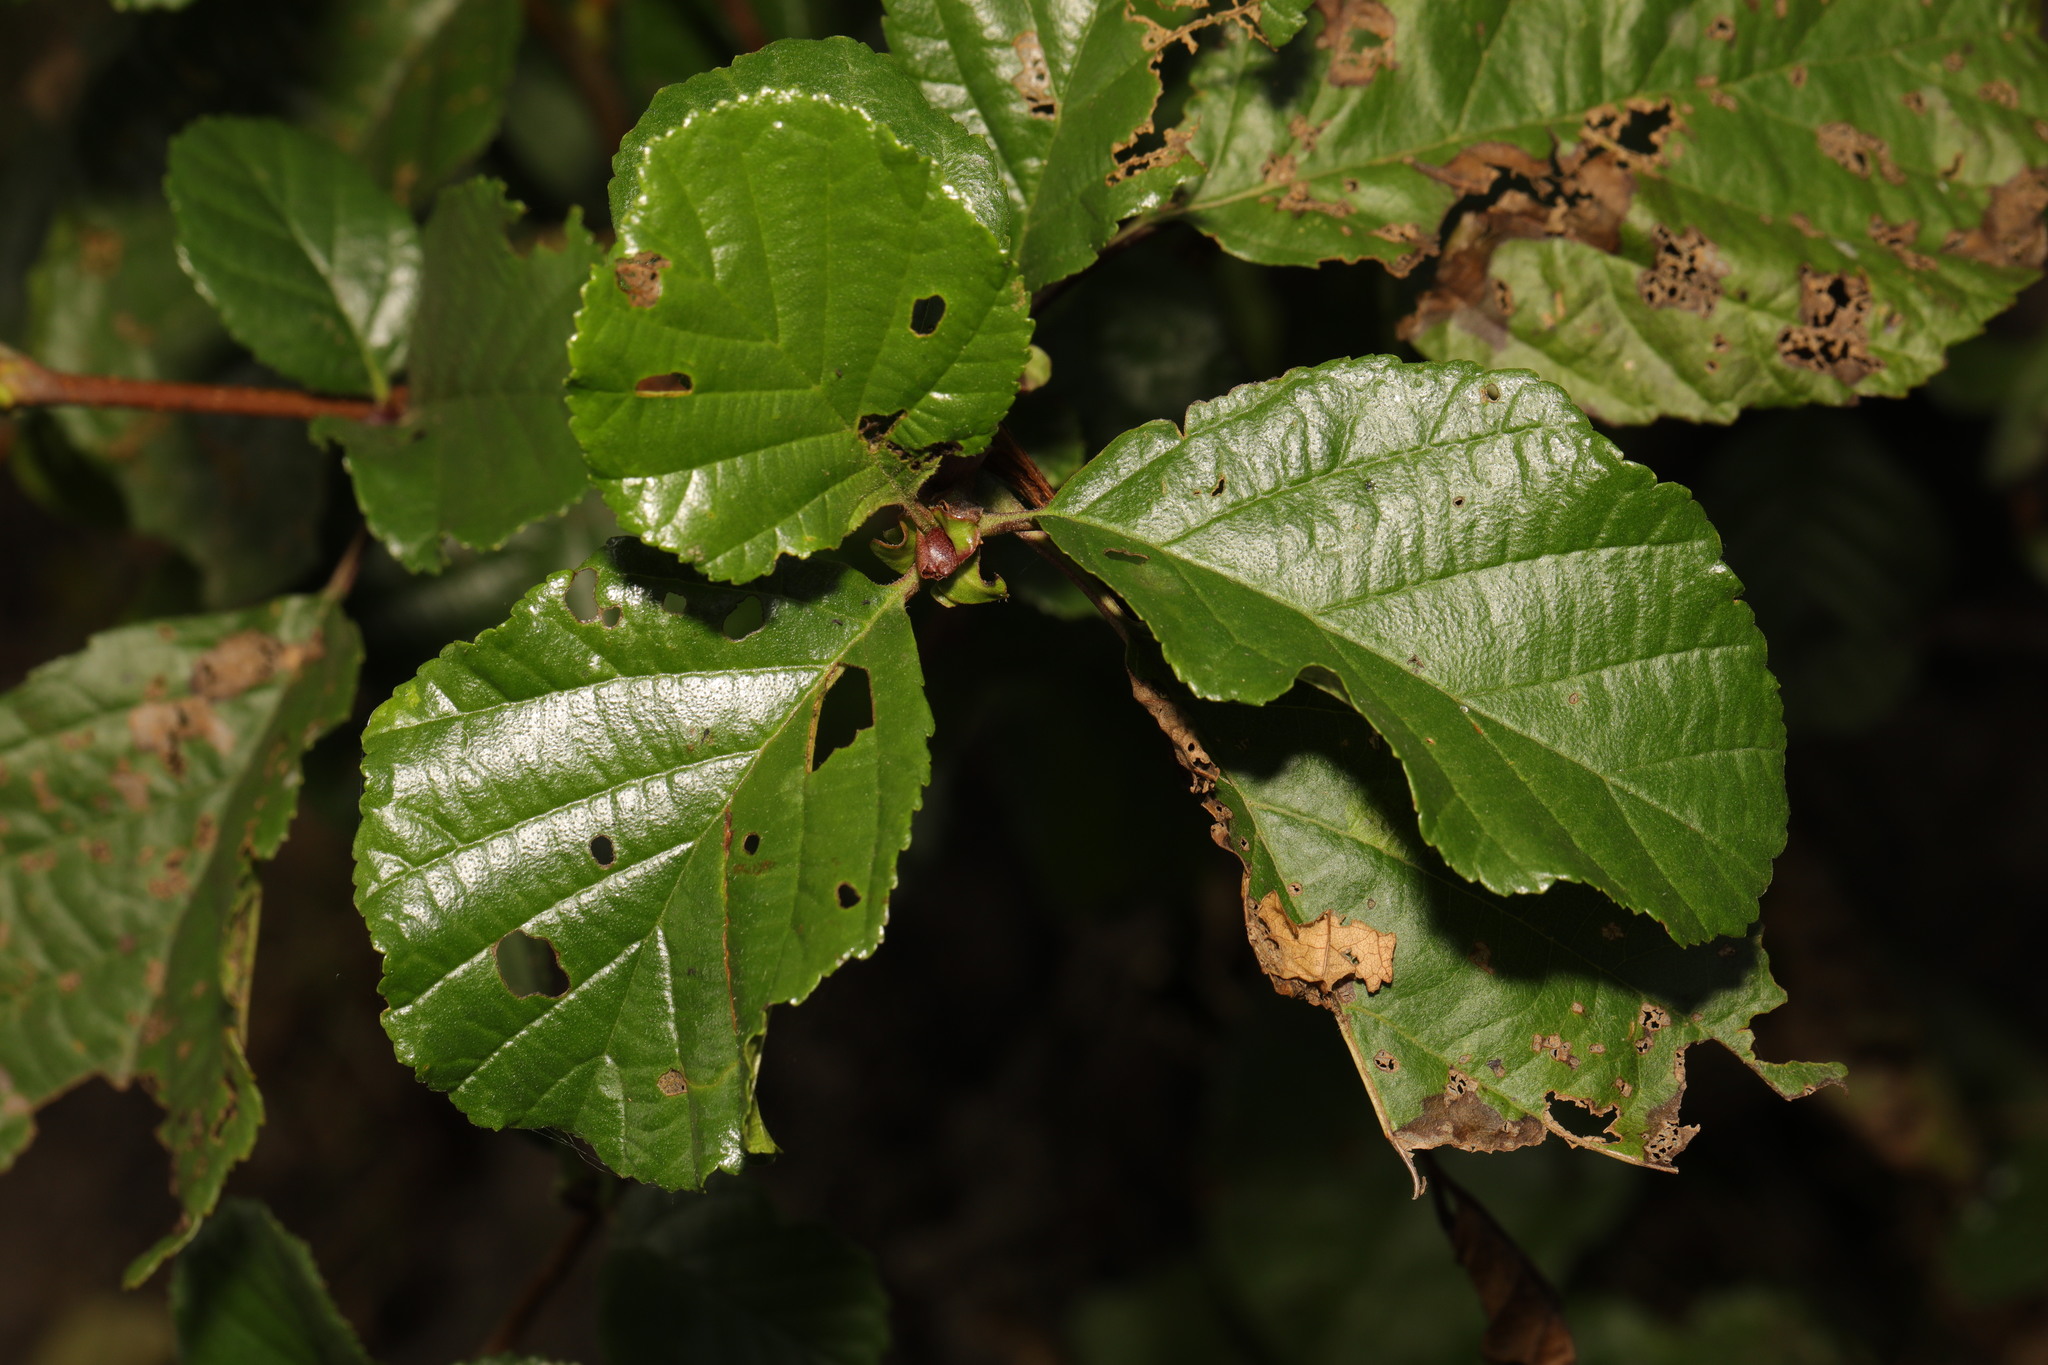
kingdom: Plantae
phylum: Tracheophyta
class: Magnoliopsida
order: Fagales
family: Betulaceae
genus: Alnus
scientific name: Alnus glutinosa
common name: Black alder
